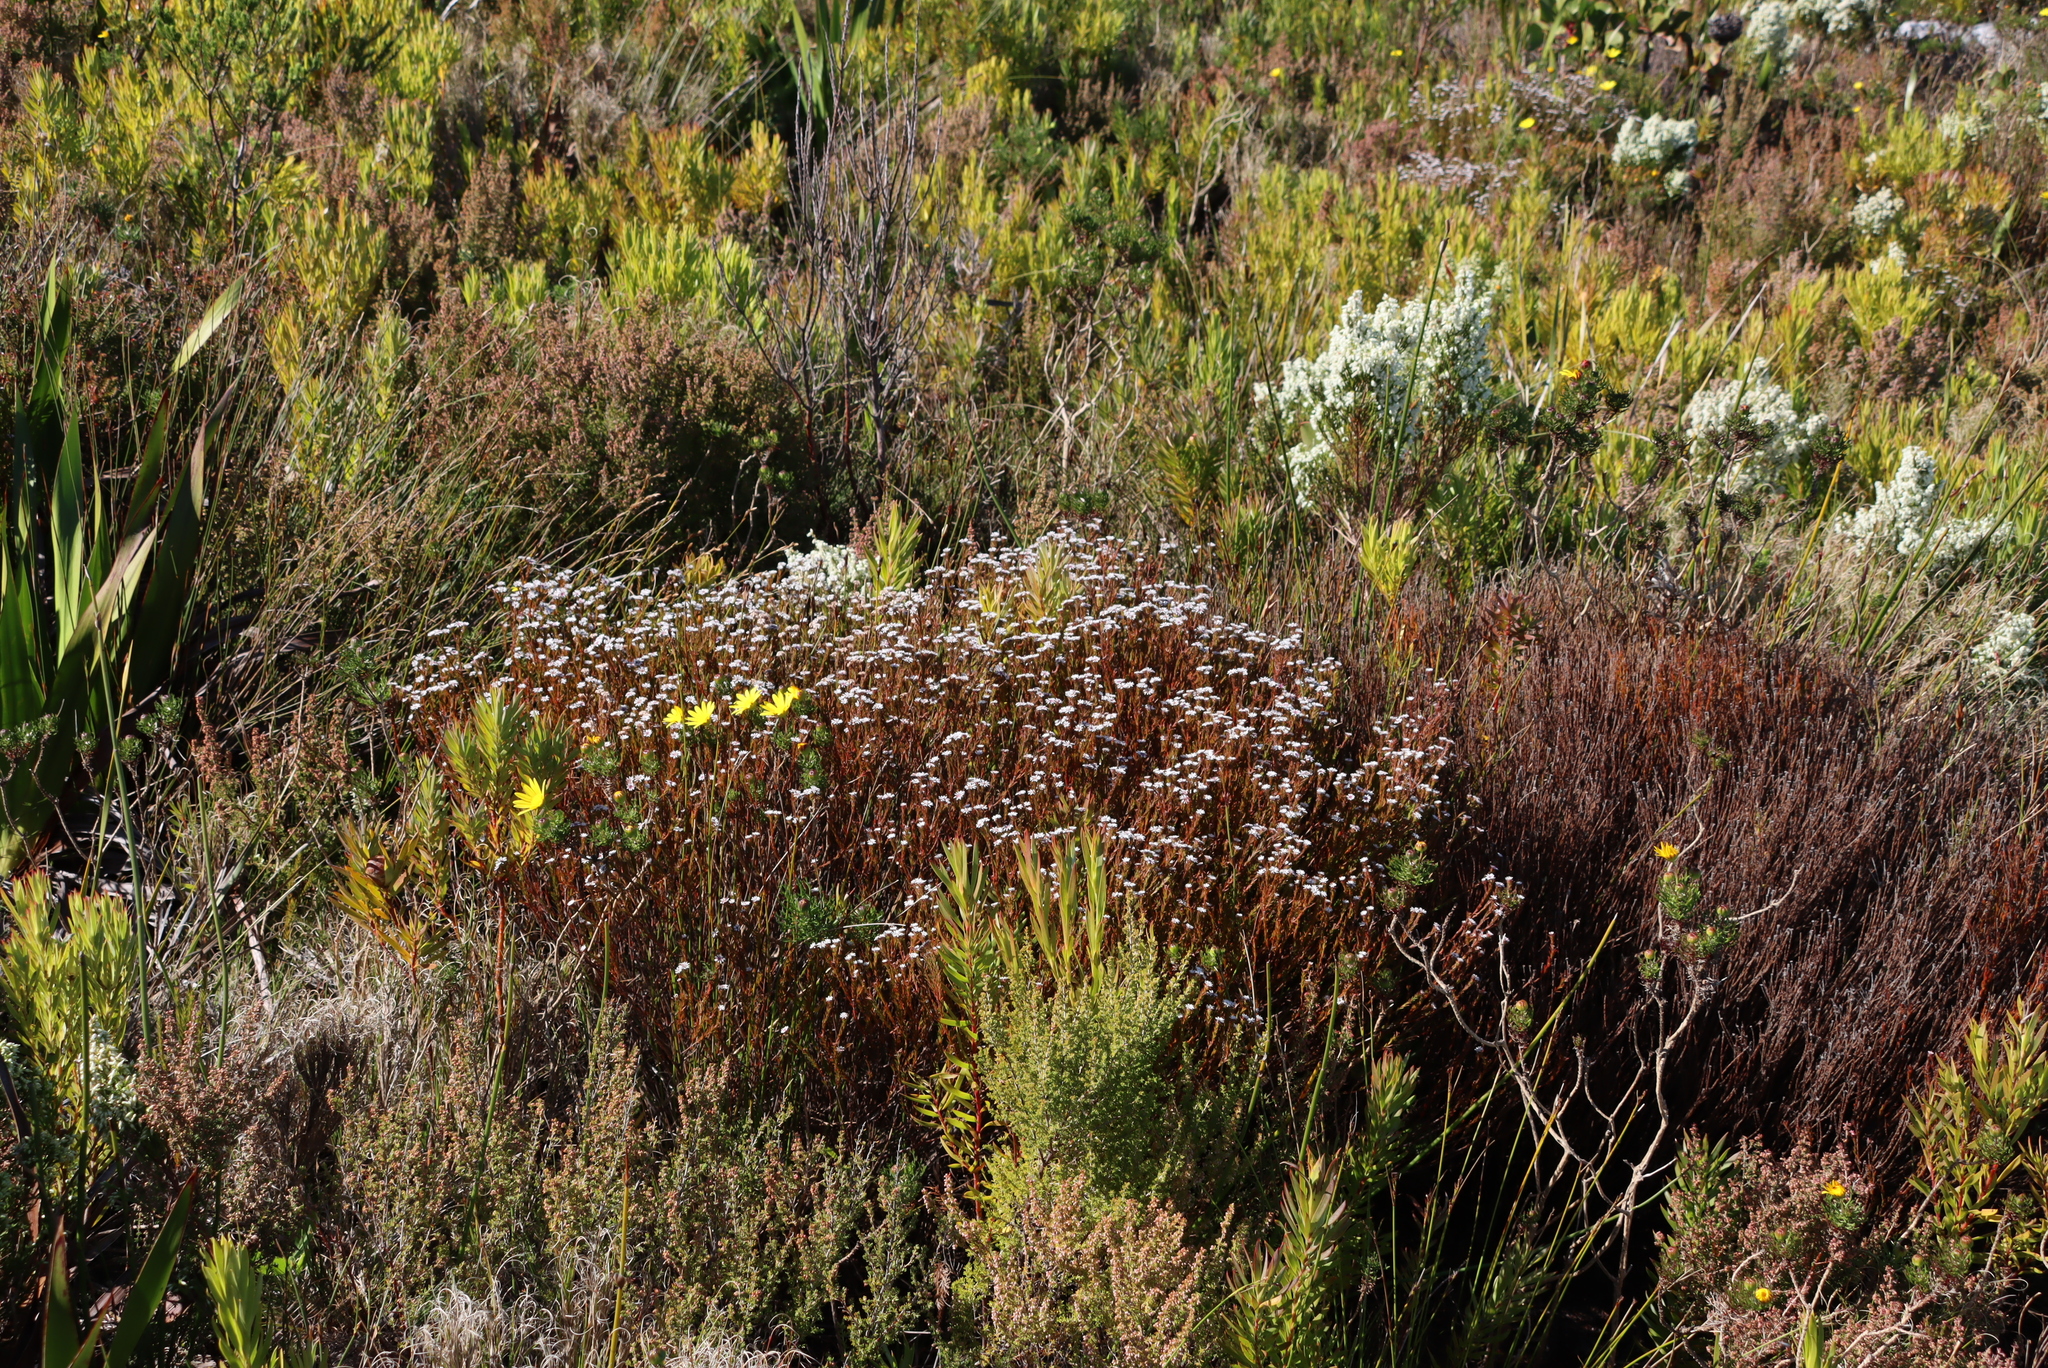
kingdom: Plantae
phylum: Tracheophyta
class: Magnoliopsida
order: Bruniales
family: Bruniaceae
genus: Staavia
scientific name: Staavia radiata
